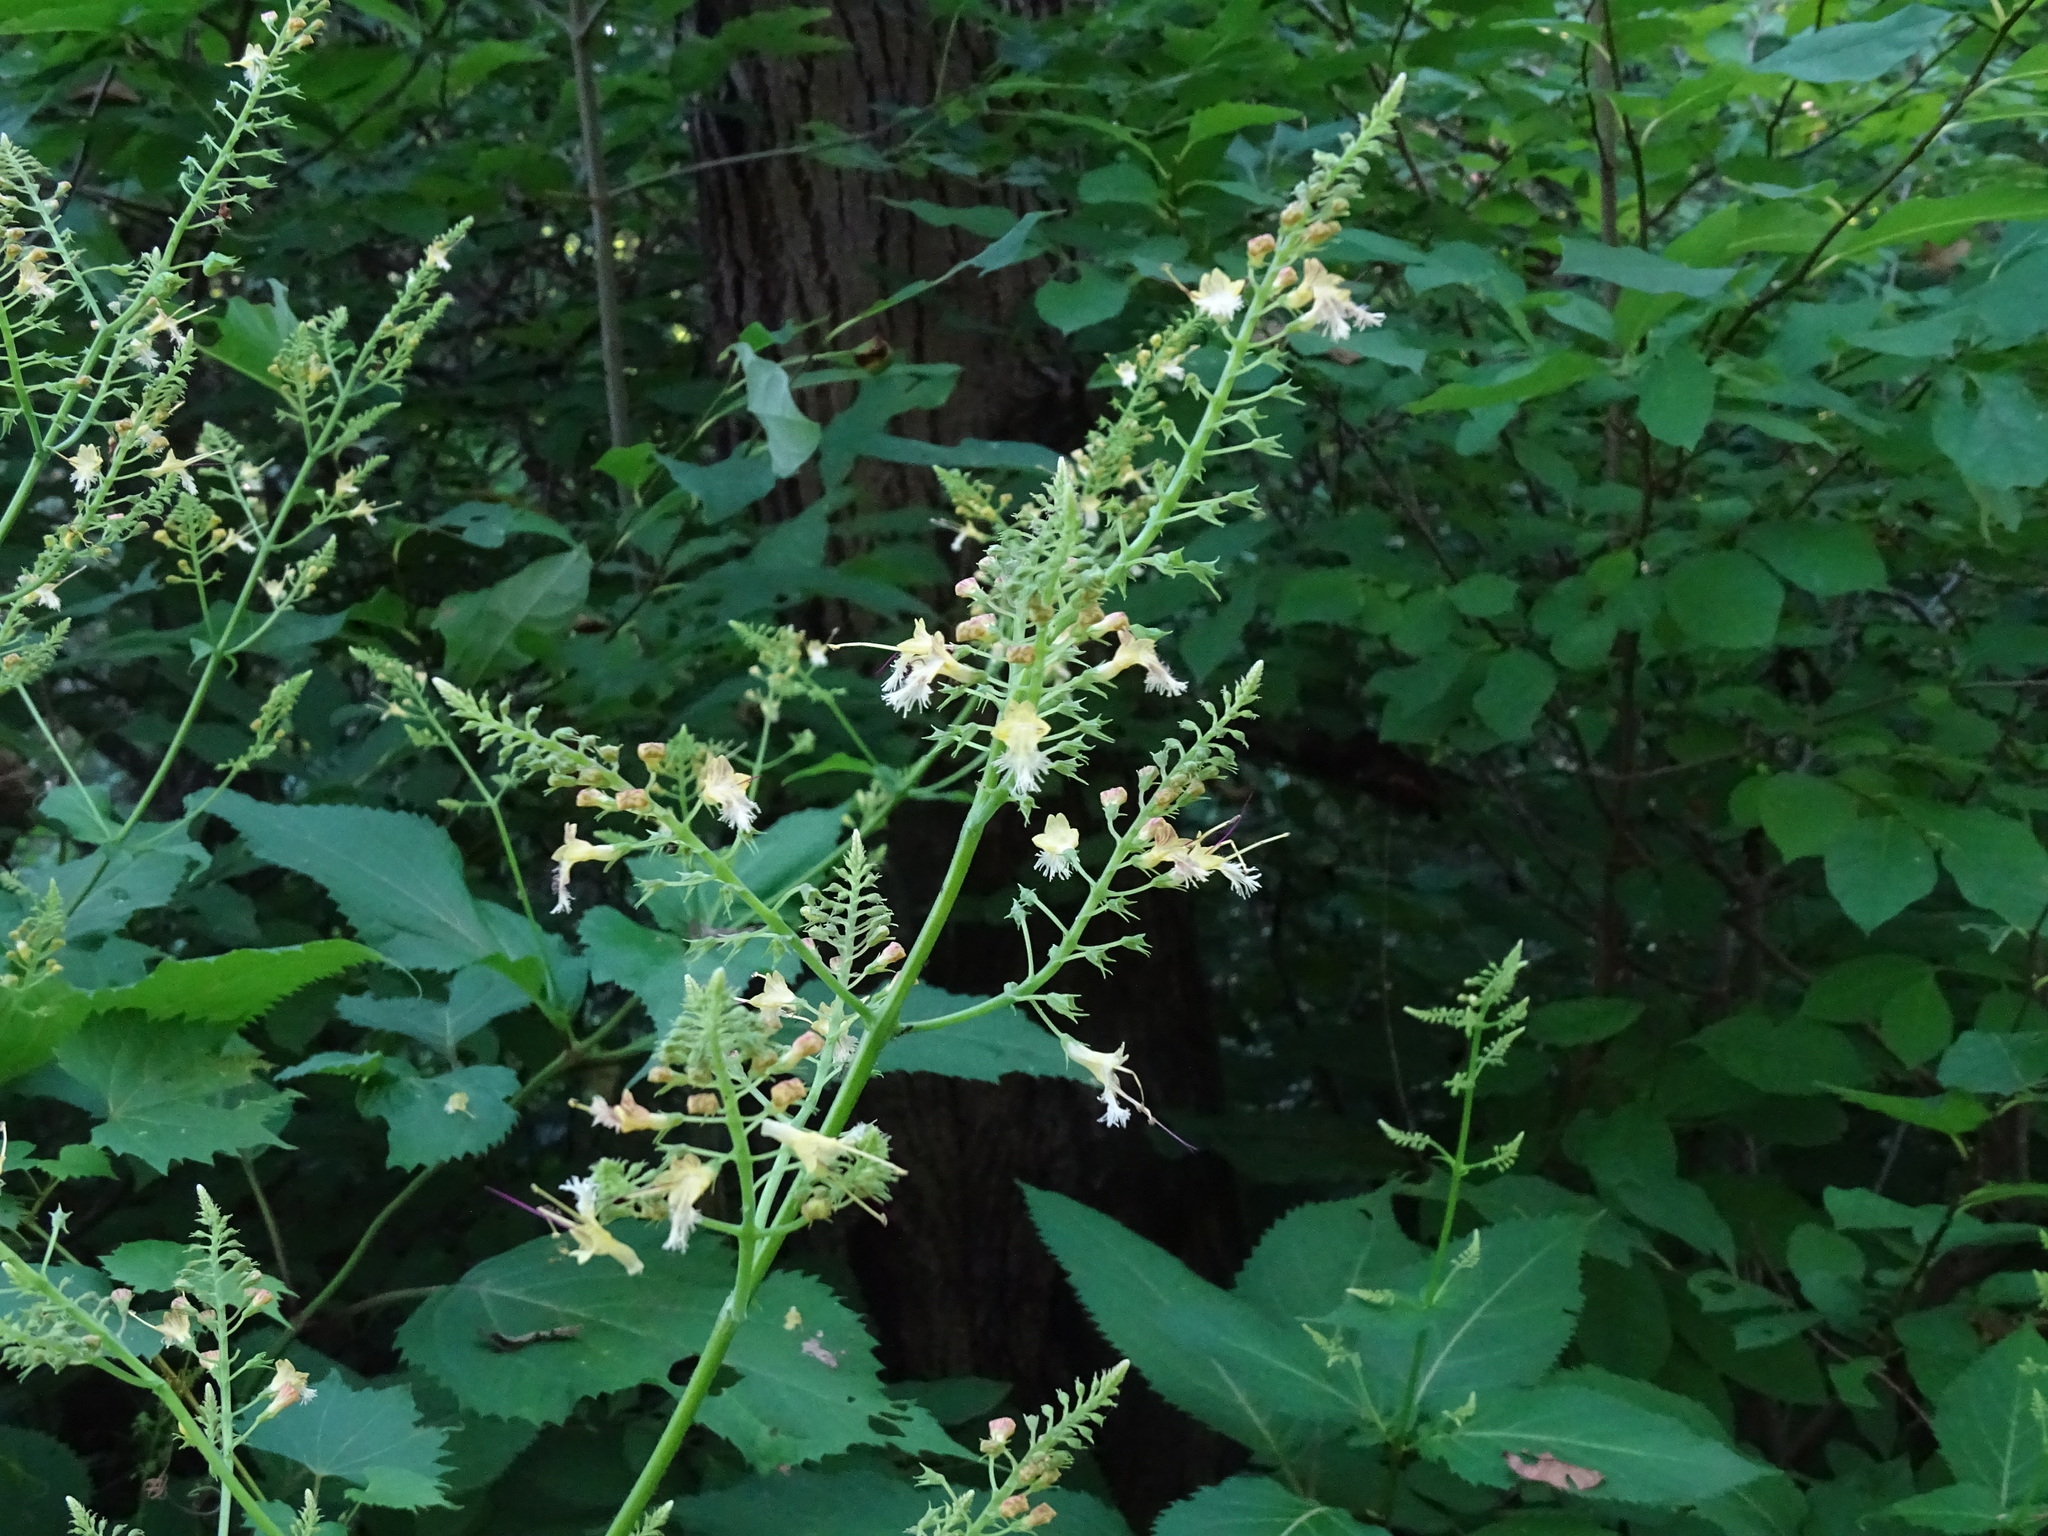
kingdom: Plantae
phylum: Tracheophyta
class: Magnoliopsida
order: Lamiales
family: Lamiaceae
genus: Collinsonia
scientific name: Collinsonia canadensis
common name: Northern horsebalm
